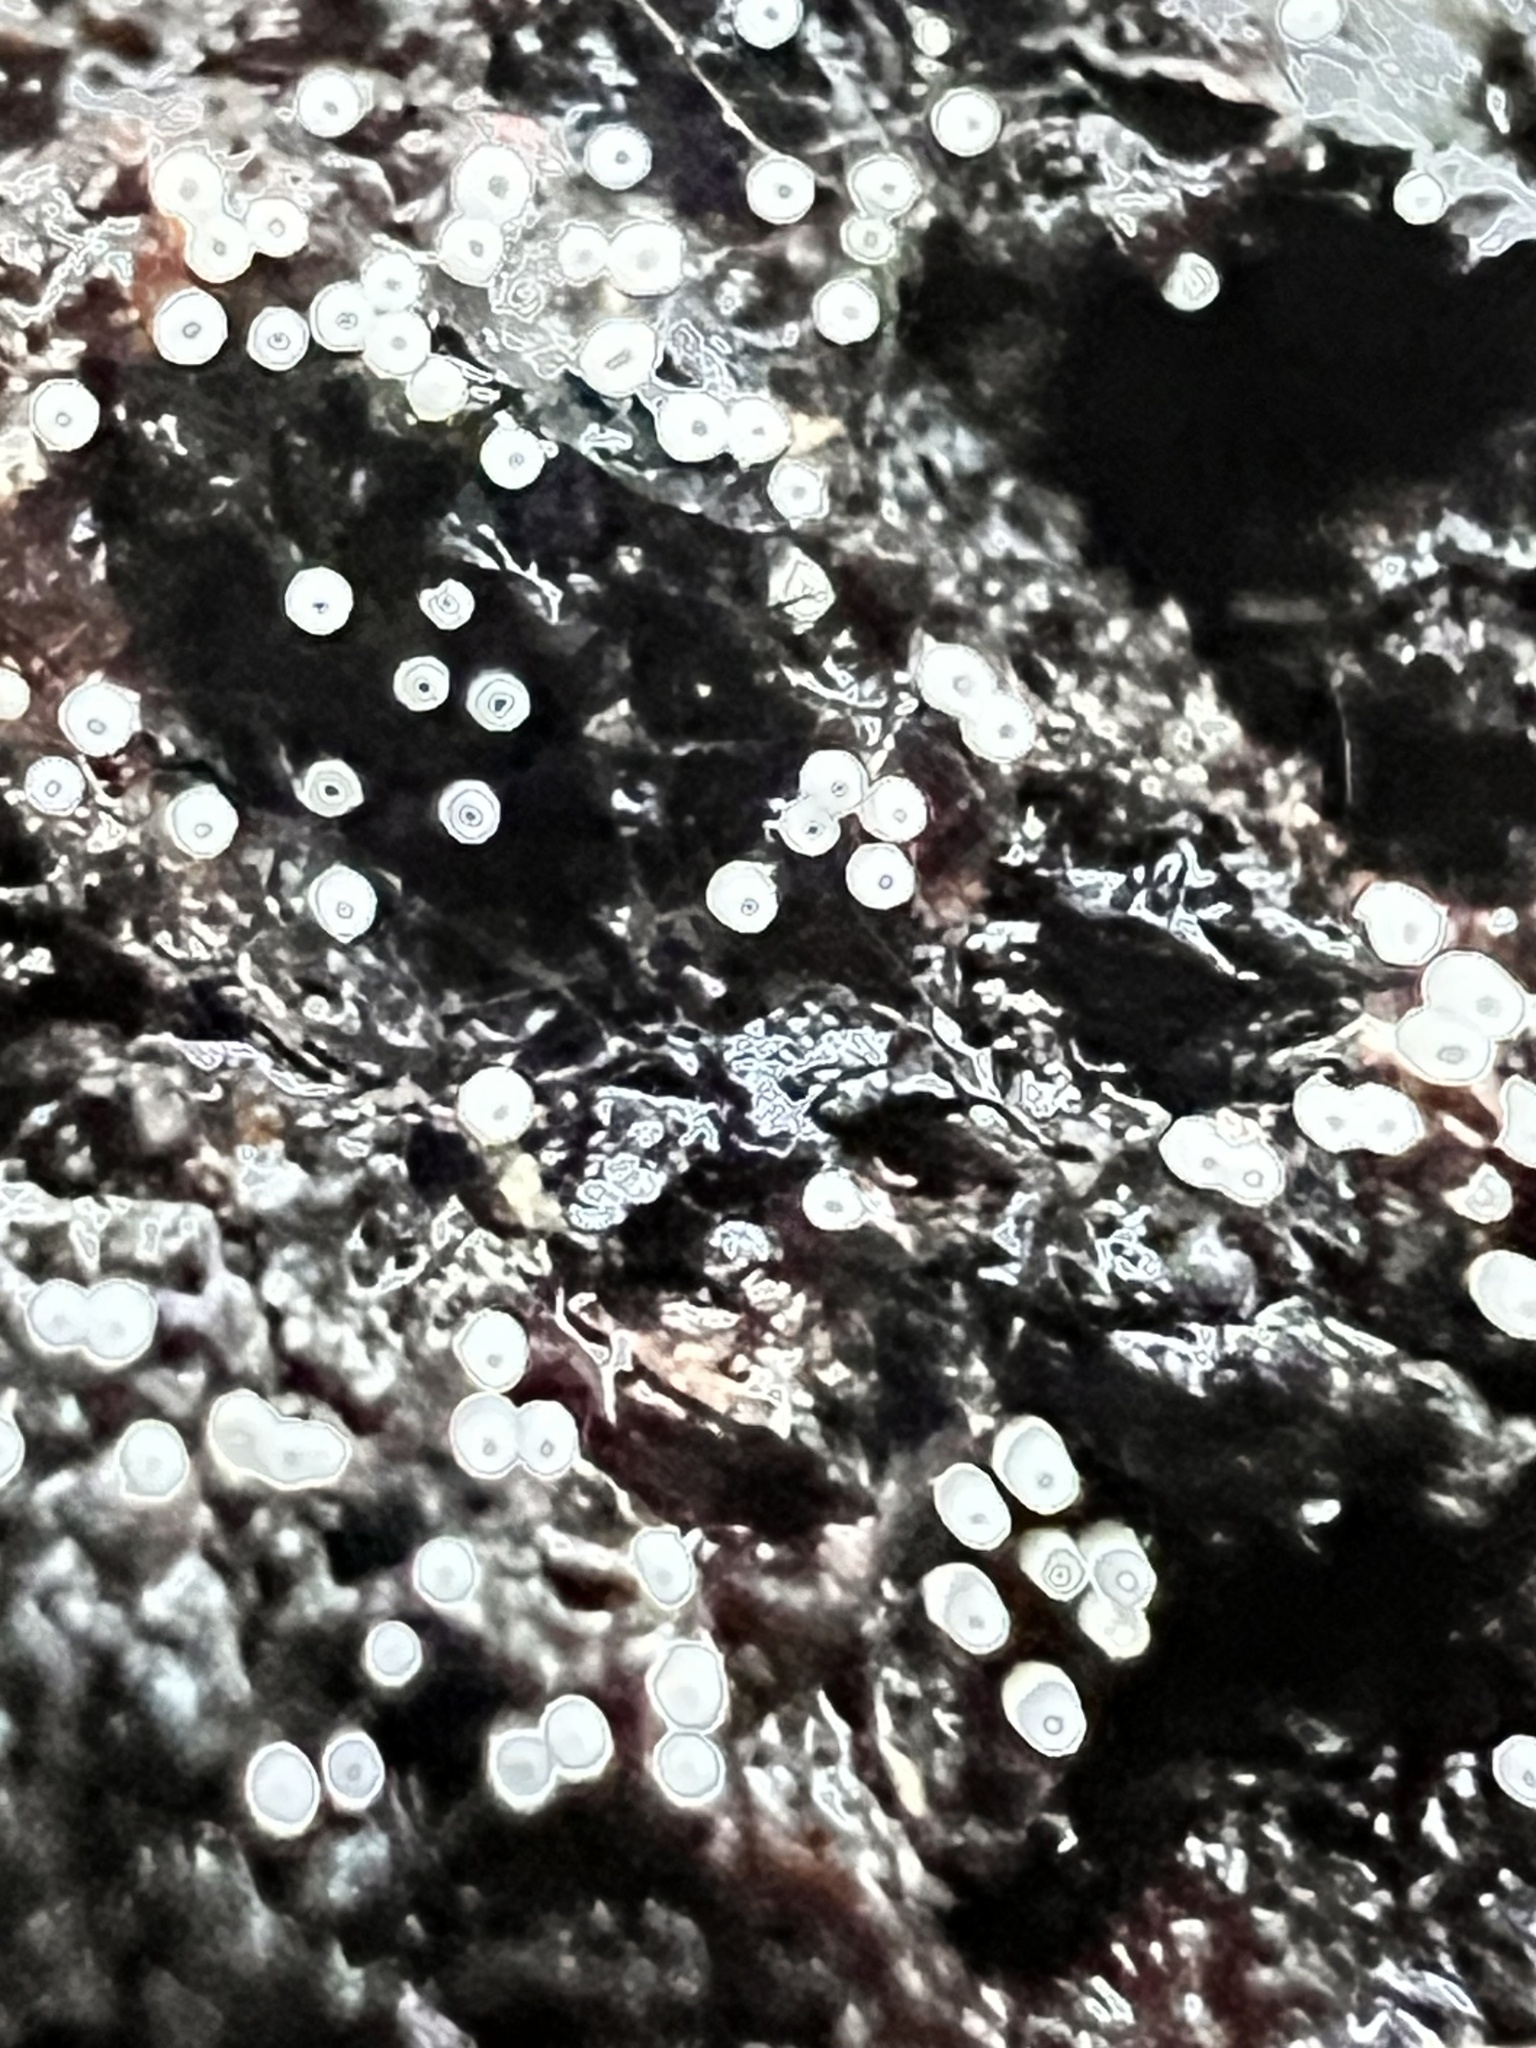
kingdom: Fungi
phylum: Basidiomycota
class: Agaricomycetes
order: Agaricales
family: Marasmiaceae
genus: Henningsomyces
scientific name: Henningsomyces candidus
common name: White tubelet
